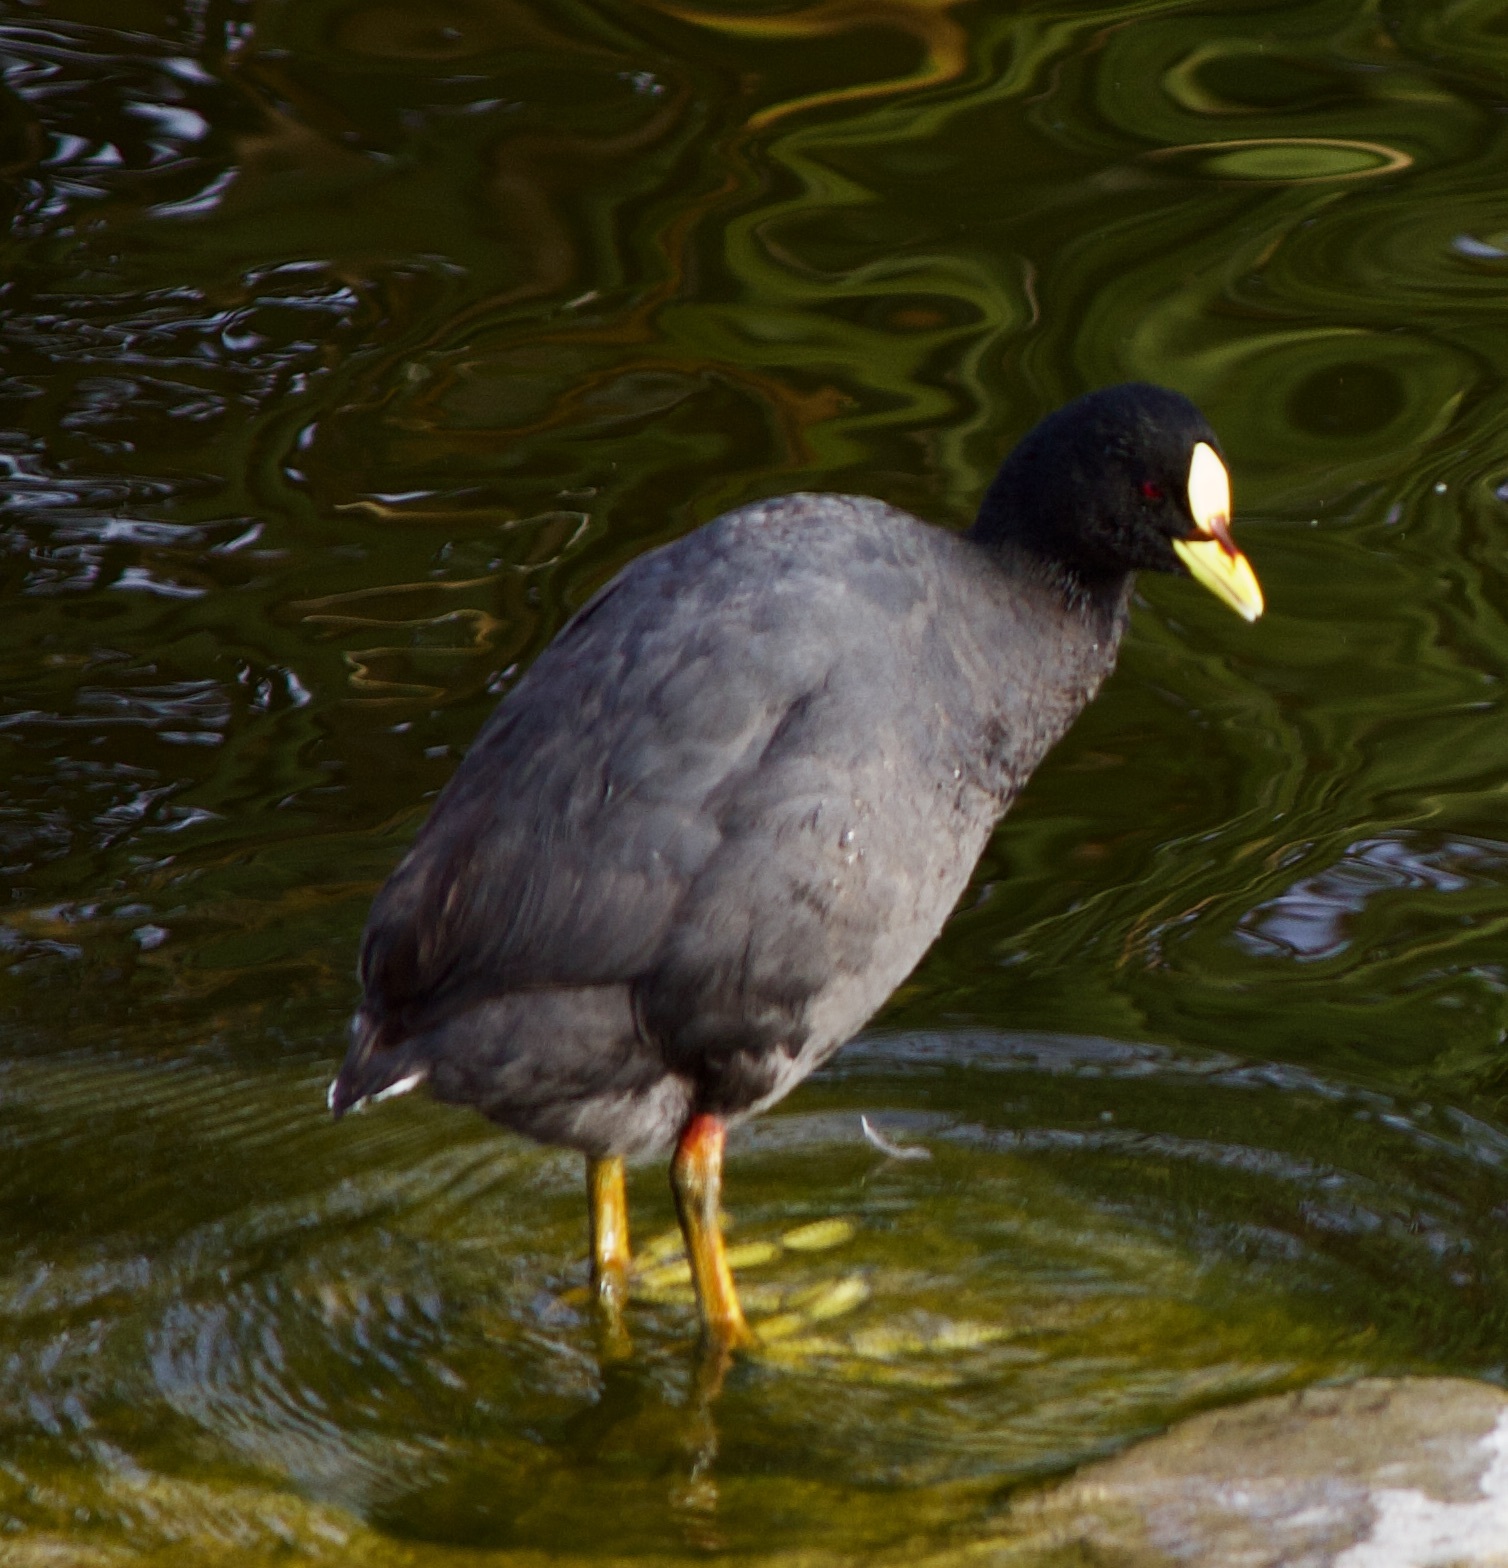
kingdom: Animalia
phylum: Chordata
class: Aves
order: Gruiformes
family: Rallidae
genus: Fulica
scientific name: Fulica armillata
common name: Red-gartered coot
